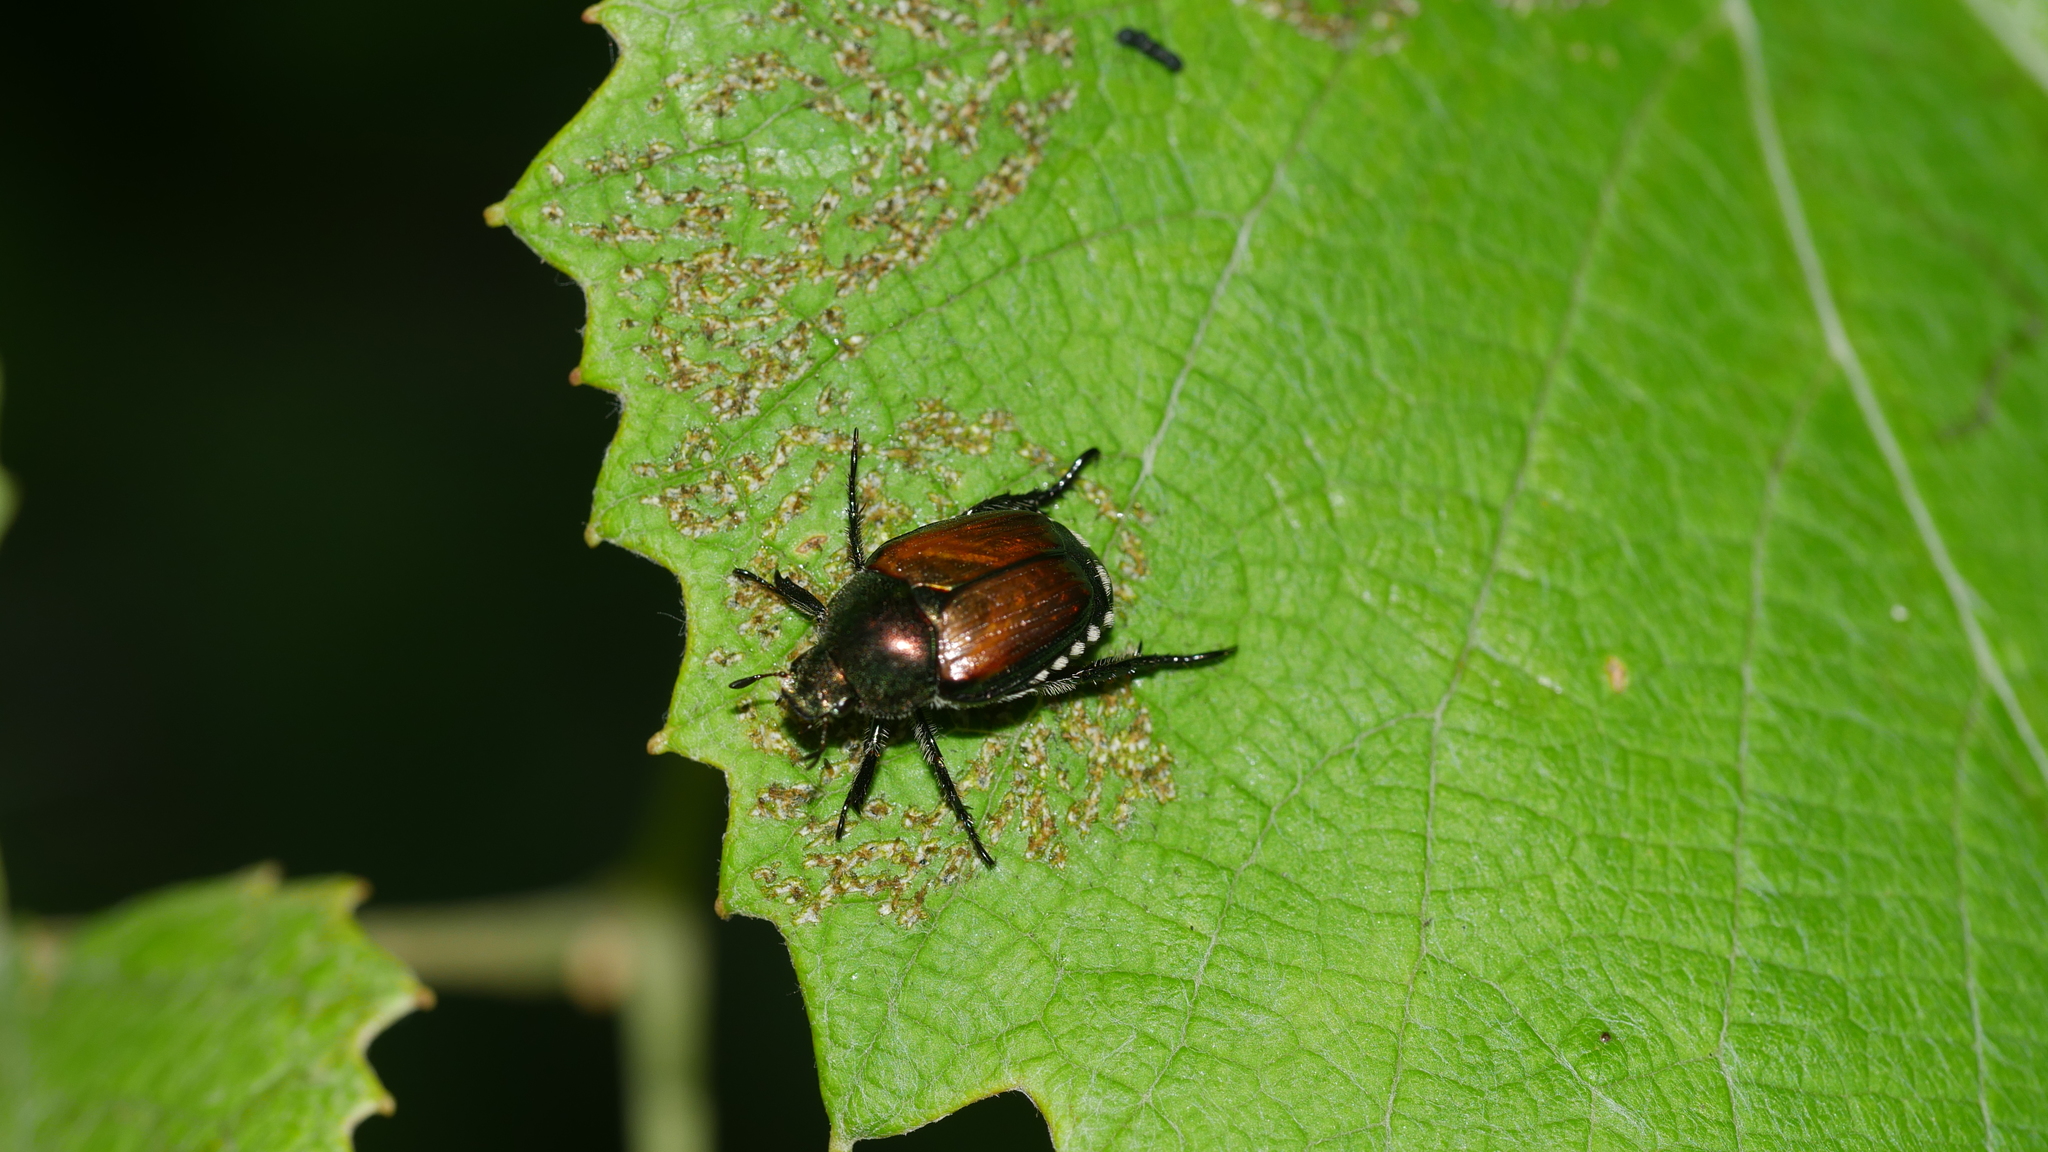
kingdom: Animalia
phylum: Arthropoda
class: Insecta
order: Coleoptera
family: Scarabaeidae
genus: Popillia
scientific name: Popillia japonica
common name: Japanese beetle
